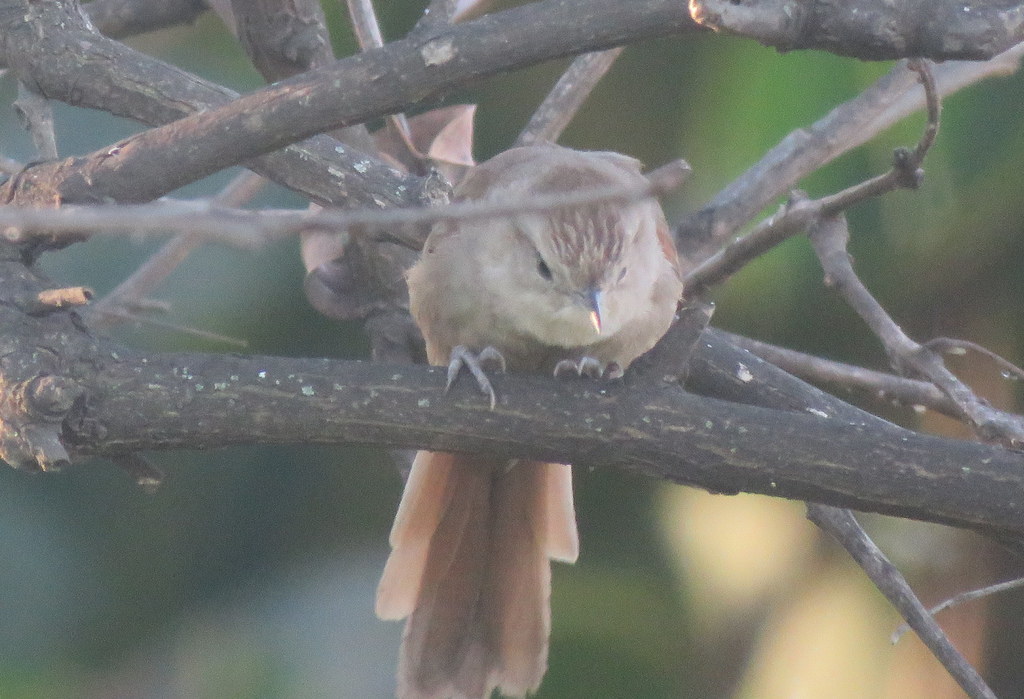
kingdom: Animalia
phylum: Chordata
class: Aves
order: Passeriformes
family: Furnariidae
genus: Phacellodomus
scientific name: Phacellodomus sibilatrix
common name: Little thornbird
